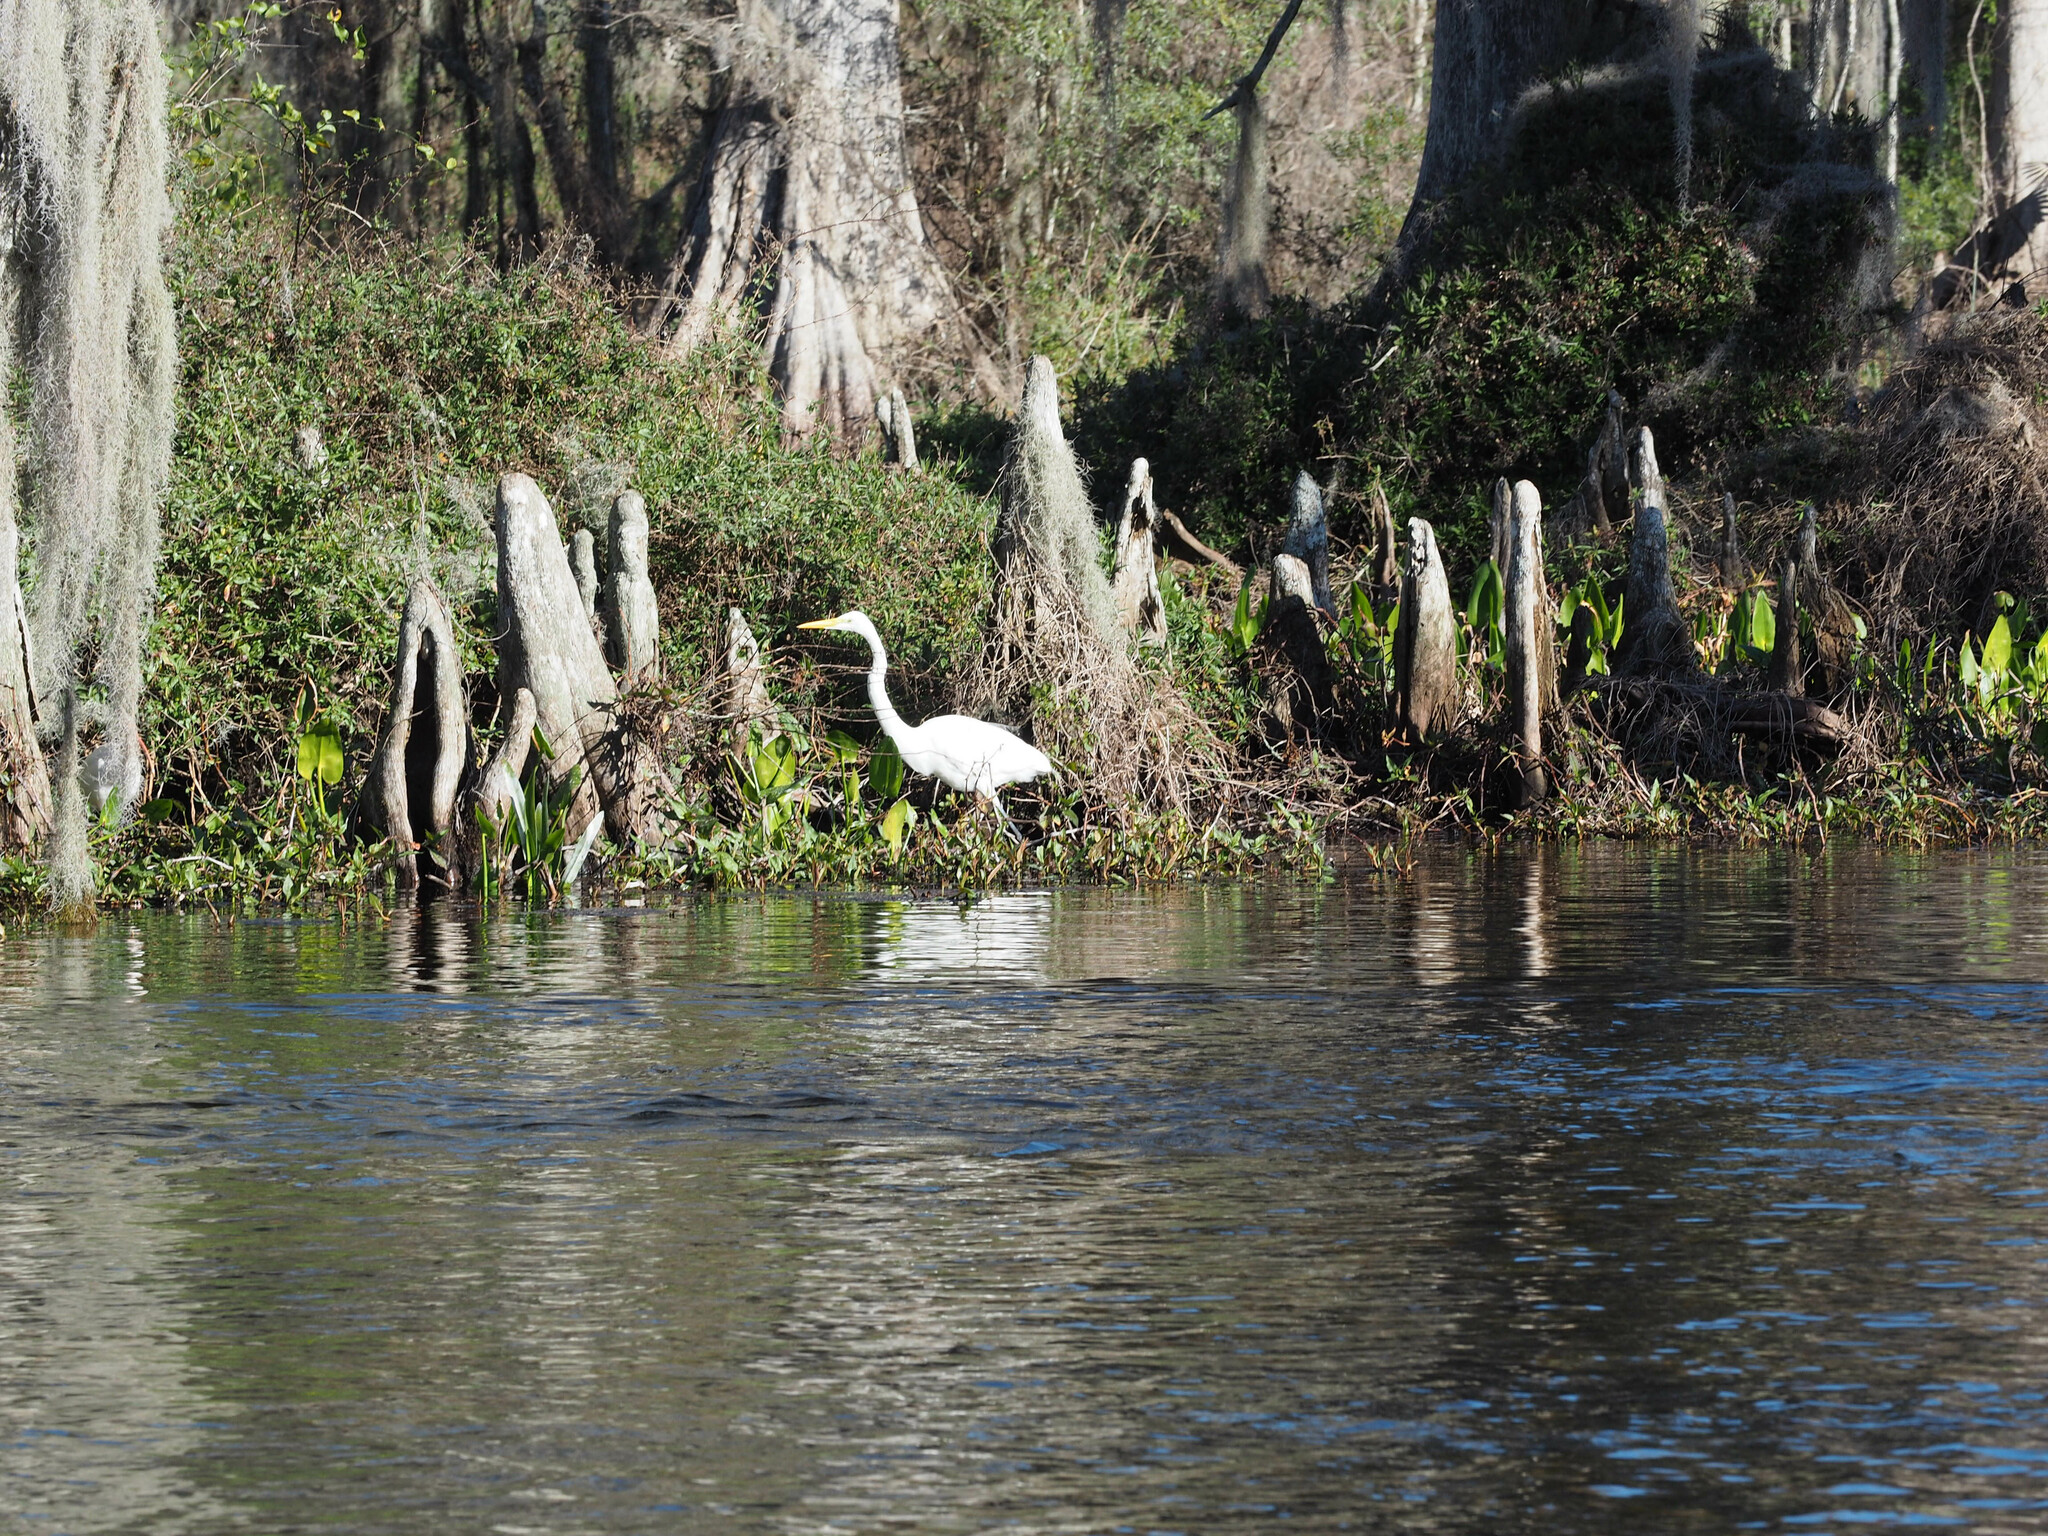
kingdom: Animalia
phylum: Chordata
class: Aves
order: Pelecaniformes
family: Ardeidae
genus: Ardea
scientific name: Ardea alba
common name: Great egret
